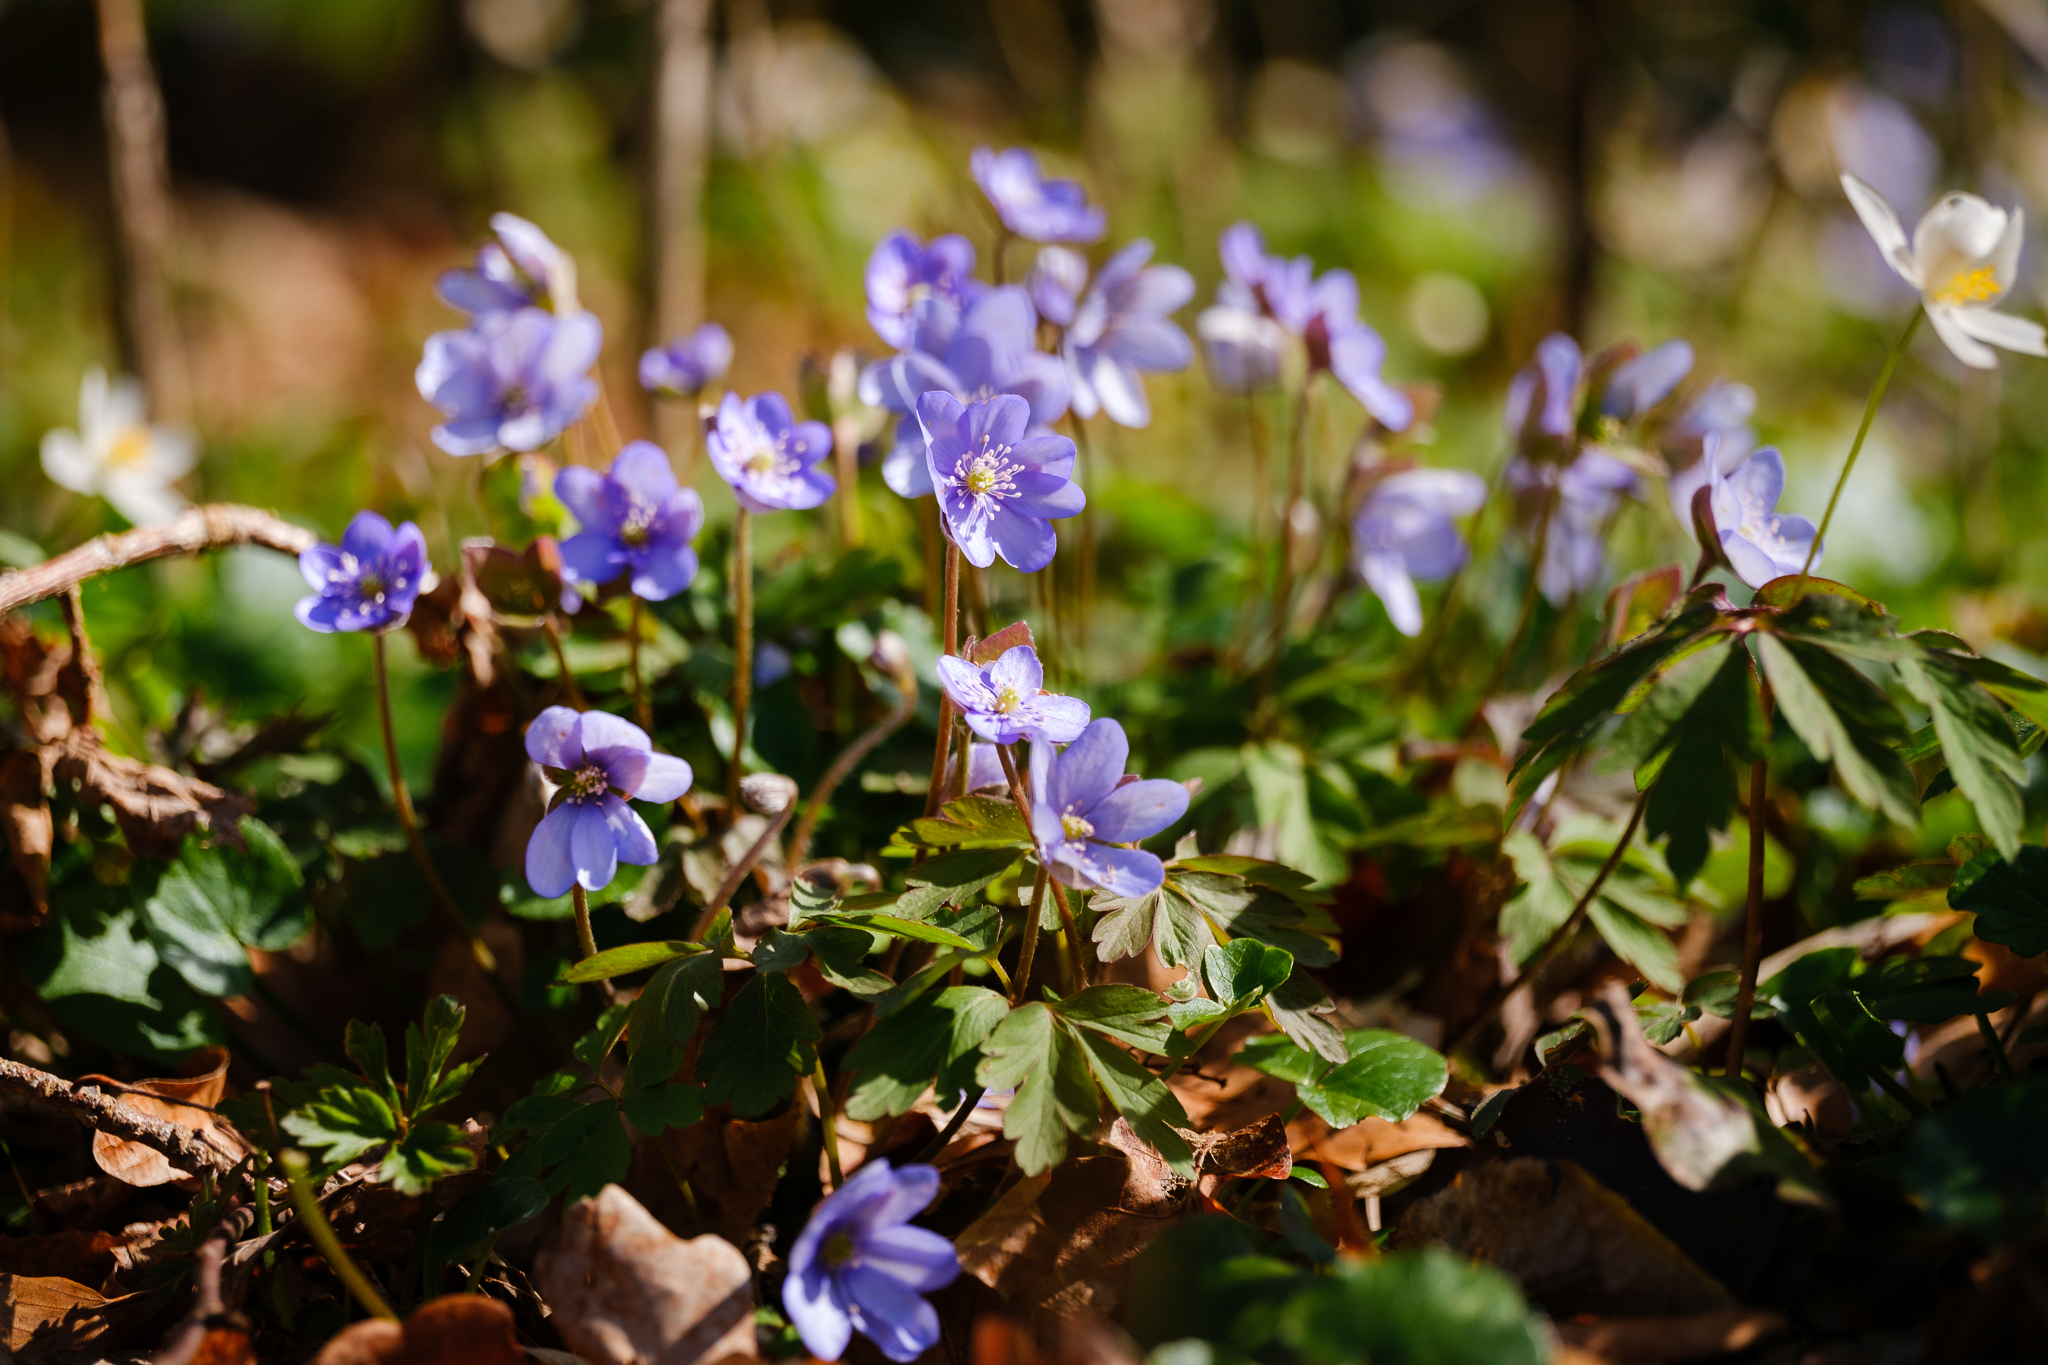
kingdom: Plantae
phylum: Tracheophyta
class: Magnoliopsida
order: Ranunculales
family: Ranunculaceae
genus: Hepatica
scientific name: Hepatica nobilis
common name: Liverleaf
